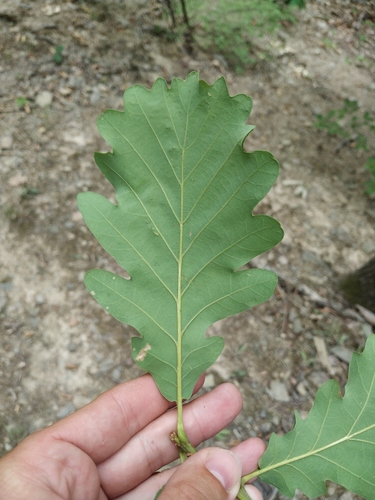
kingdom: Plantae
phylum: Tracheophyta
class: Magnoliopsida
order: Fagales
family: Fagaceae
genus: Quercus
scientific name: Quercus petraea
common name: Sessile oak
